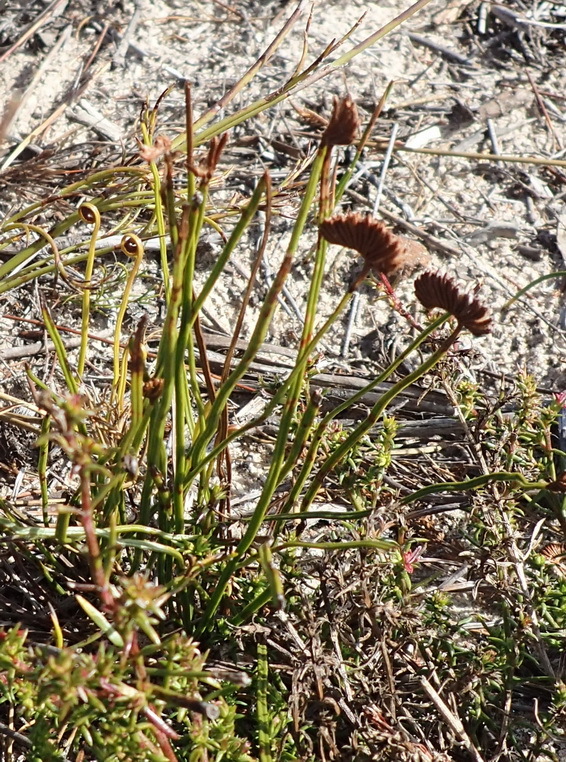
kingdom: Plantae
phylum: Tracheophyta
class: Polypodiopsida
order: Schizaeales
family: Schizaeaceae
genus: Schizaea
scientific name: Schizaea pectinata
